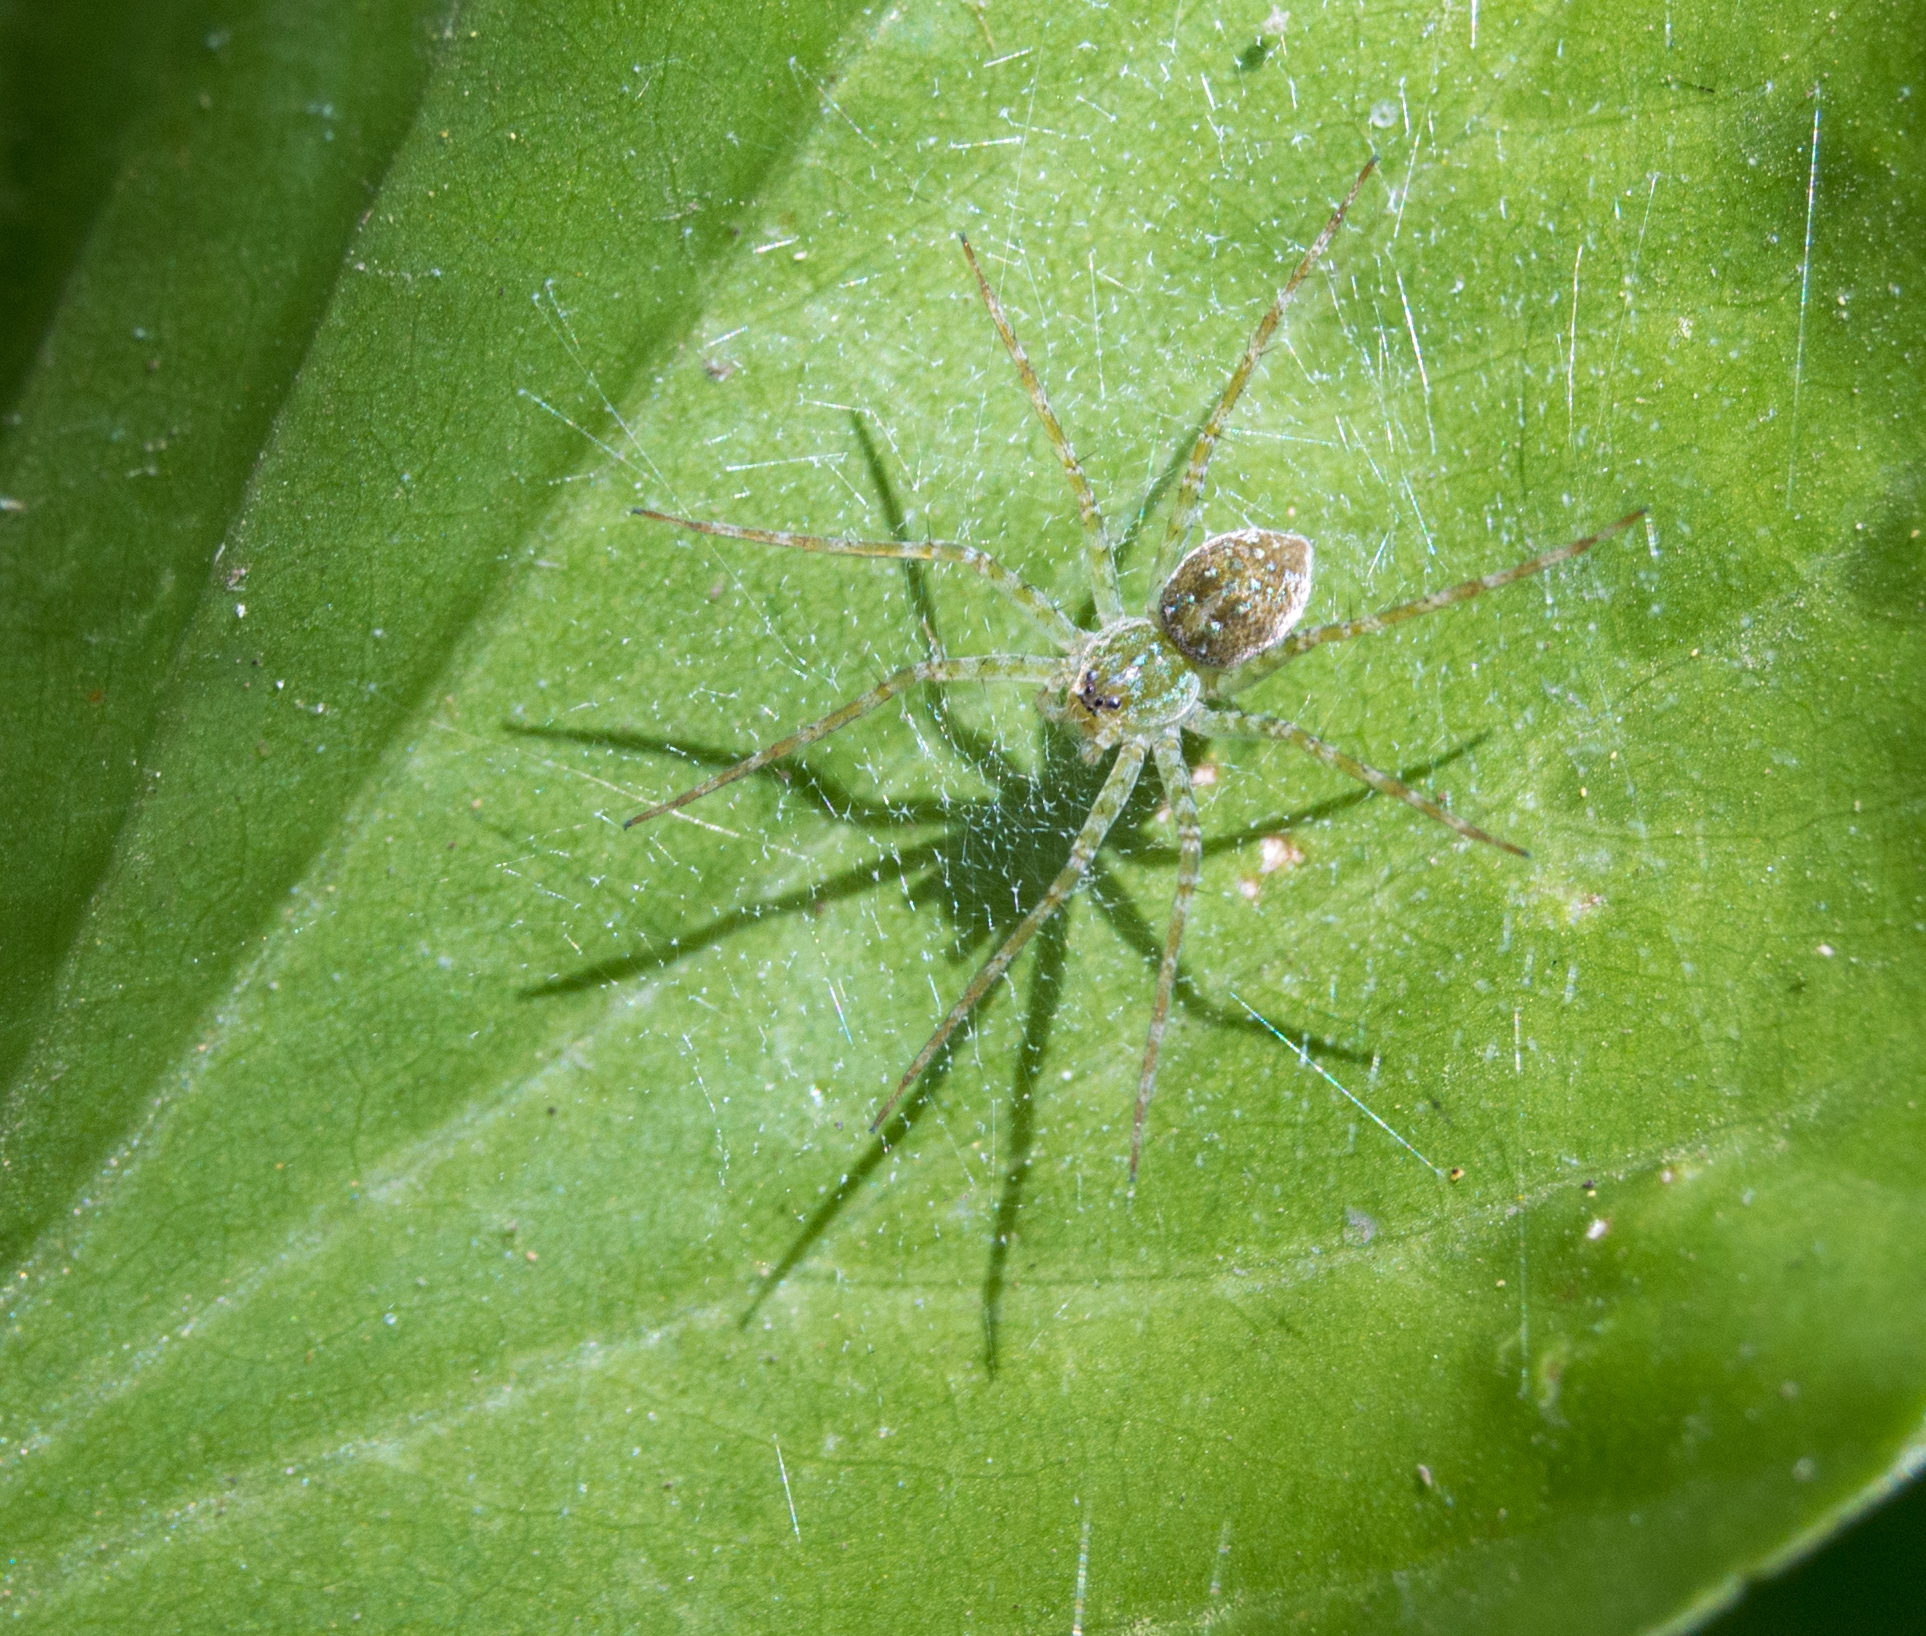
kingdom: Animalia
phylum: Arthropoda
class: Arachnida
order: Araneae
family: Pisauridae
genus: Thaumasia
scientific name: Thaumasia velox
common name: Nursery web spiders
